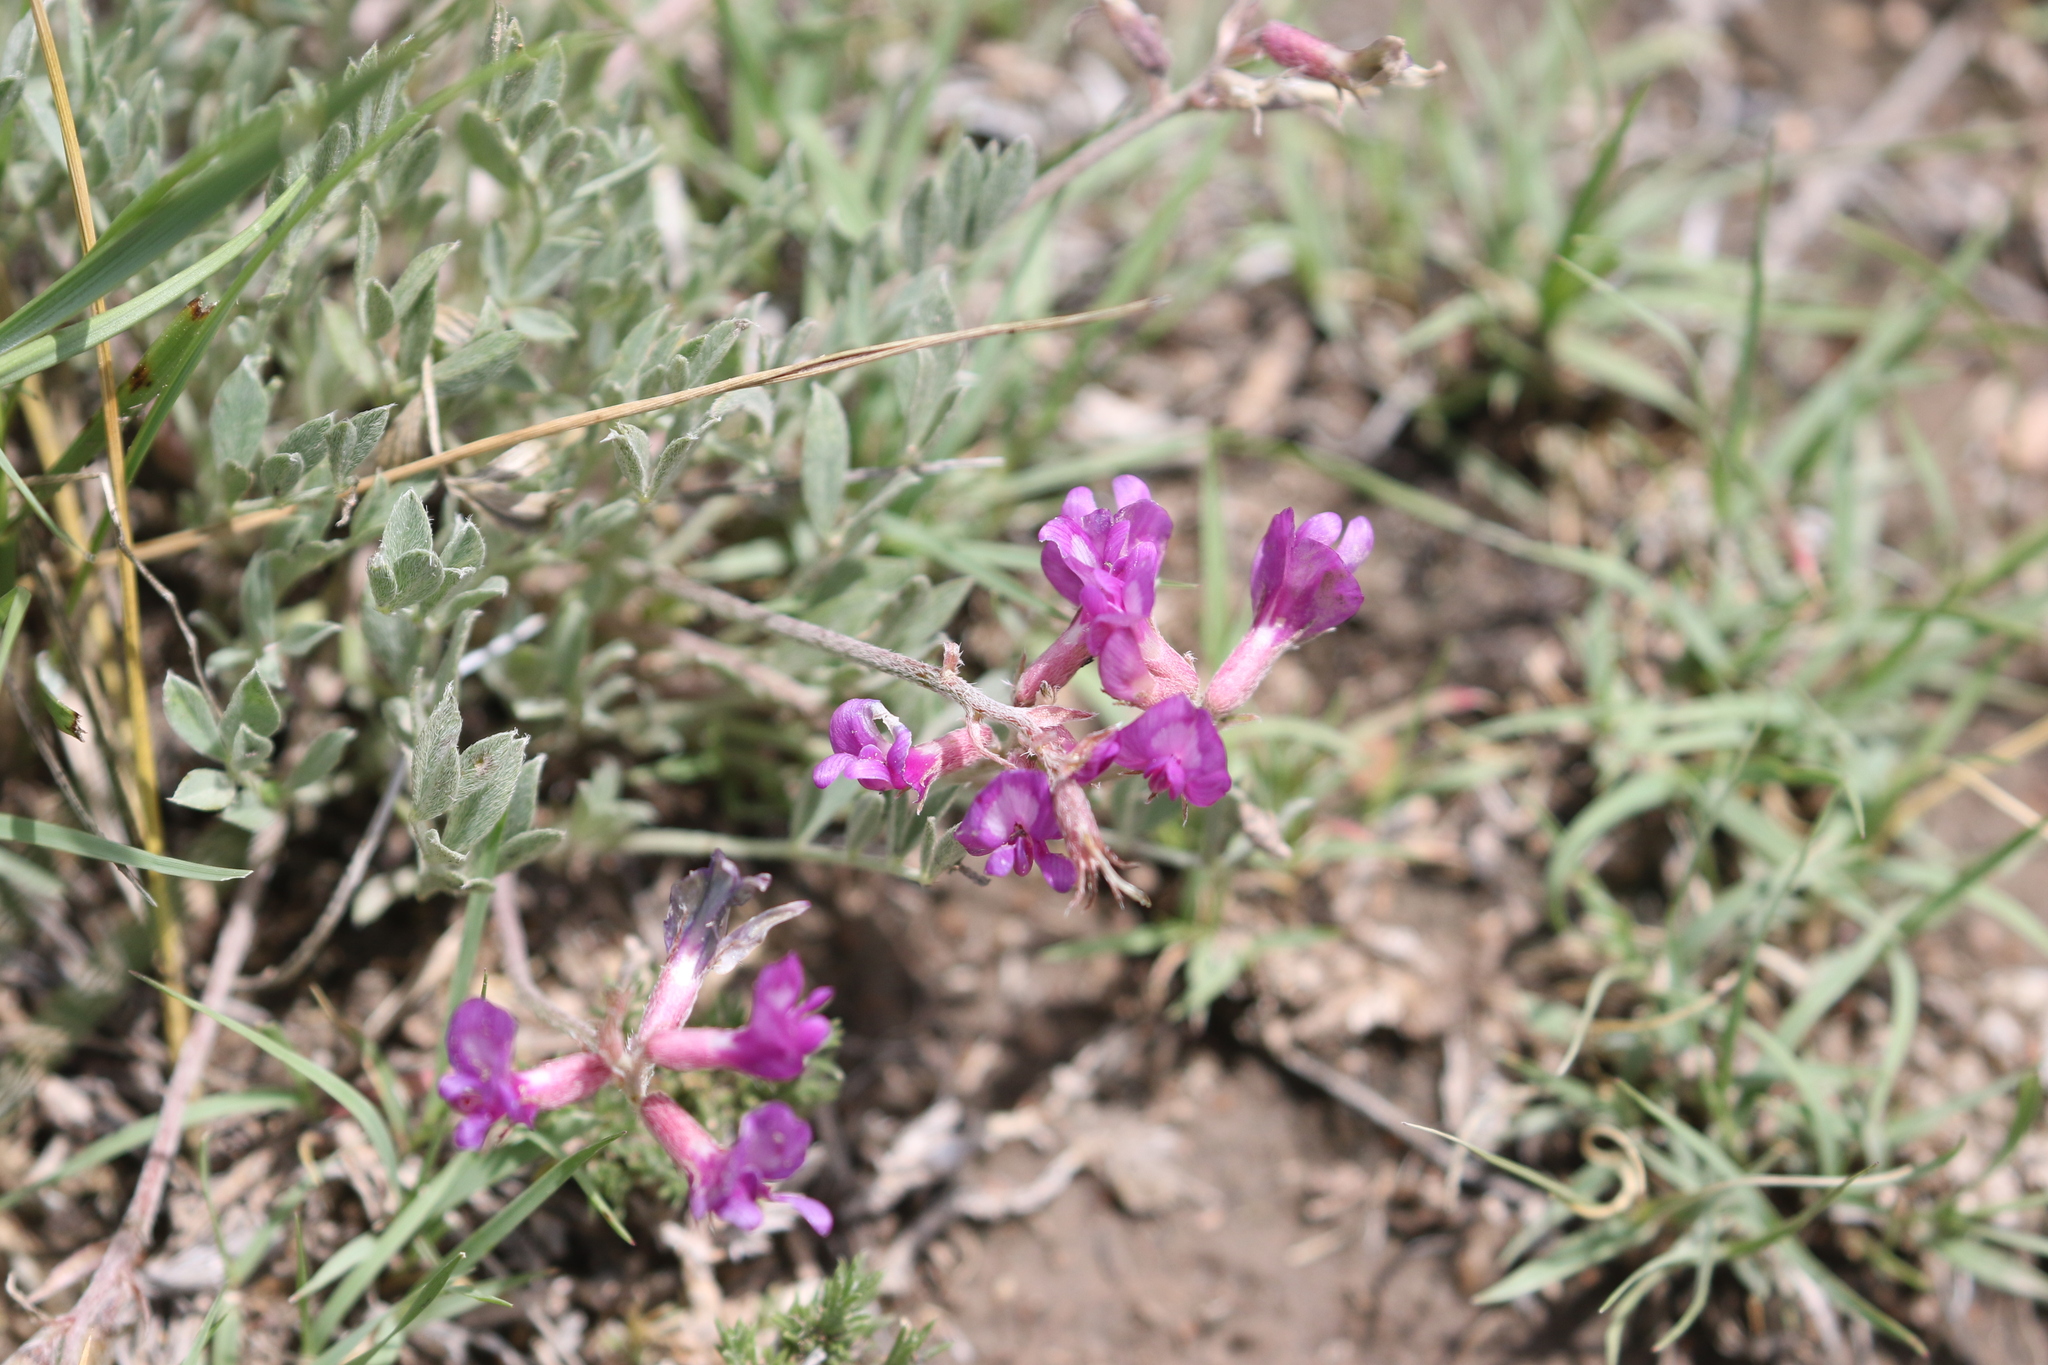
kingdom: Plantae
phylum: Tracheophyta
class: Magnoliopsida
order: Fabales
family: Fabaceae
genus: Astragalus
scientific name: Astragalus missouriensis
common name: Missouri milk-vetch
